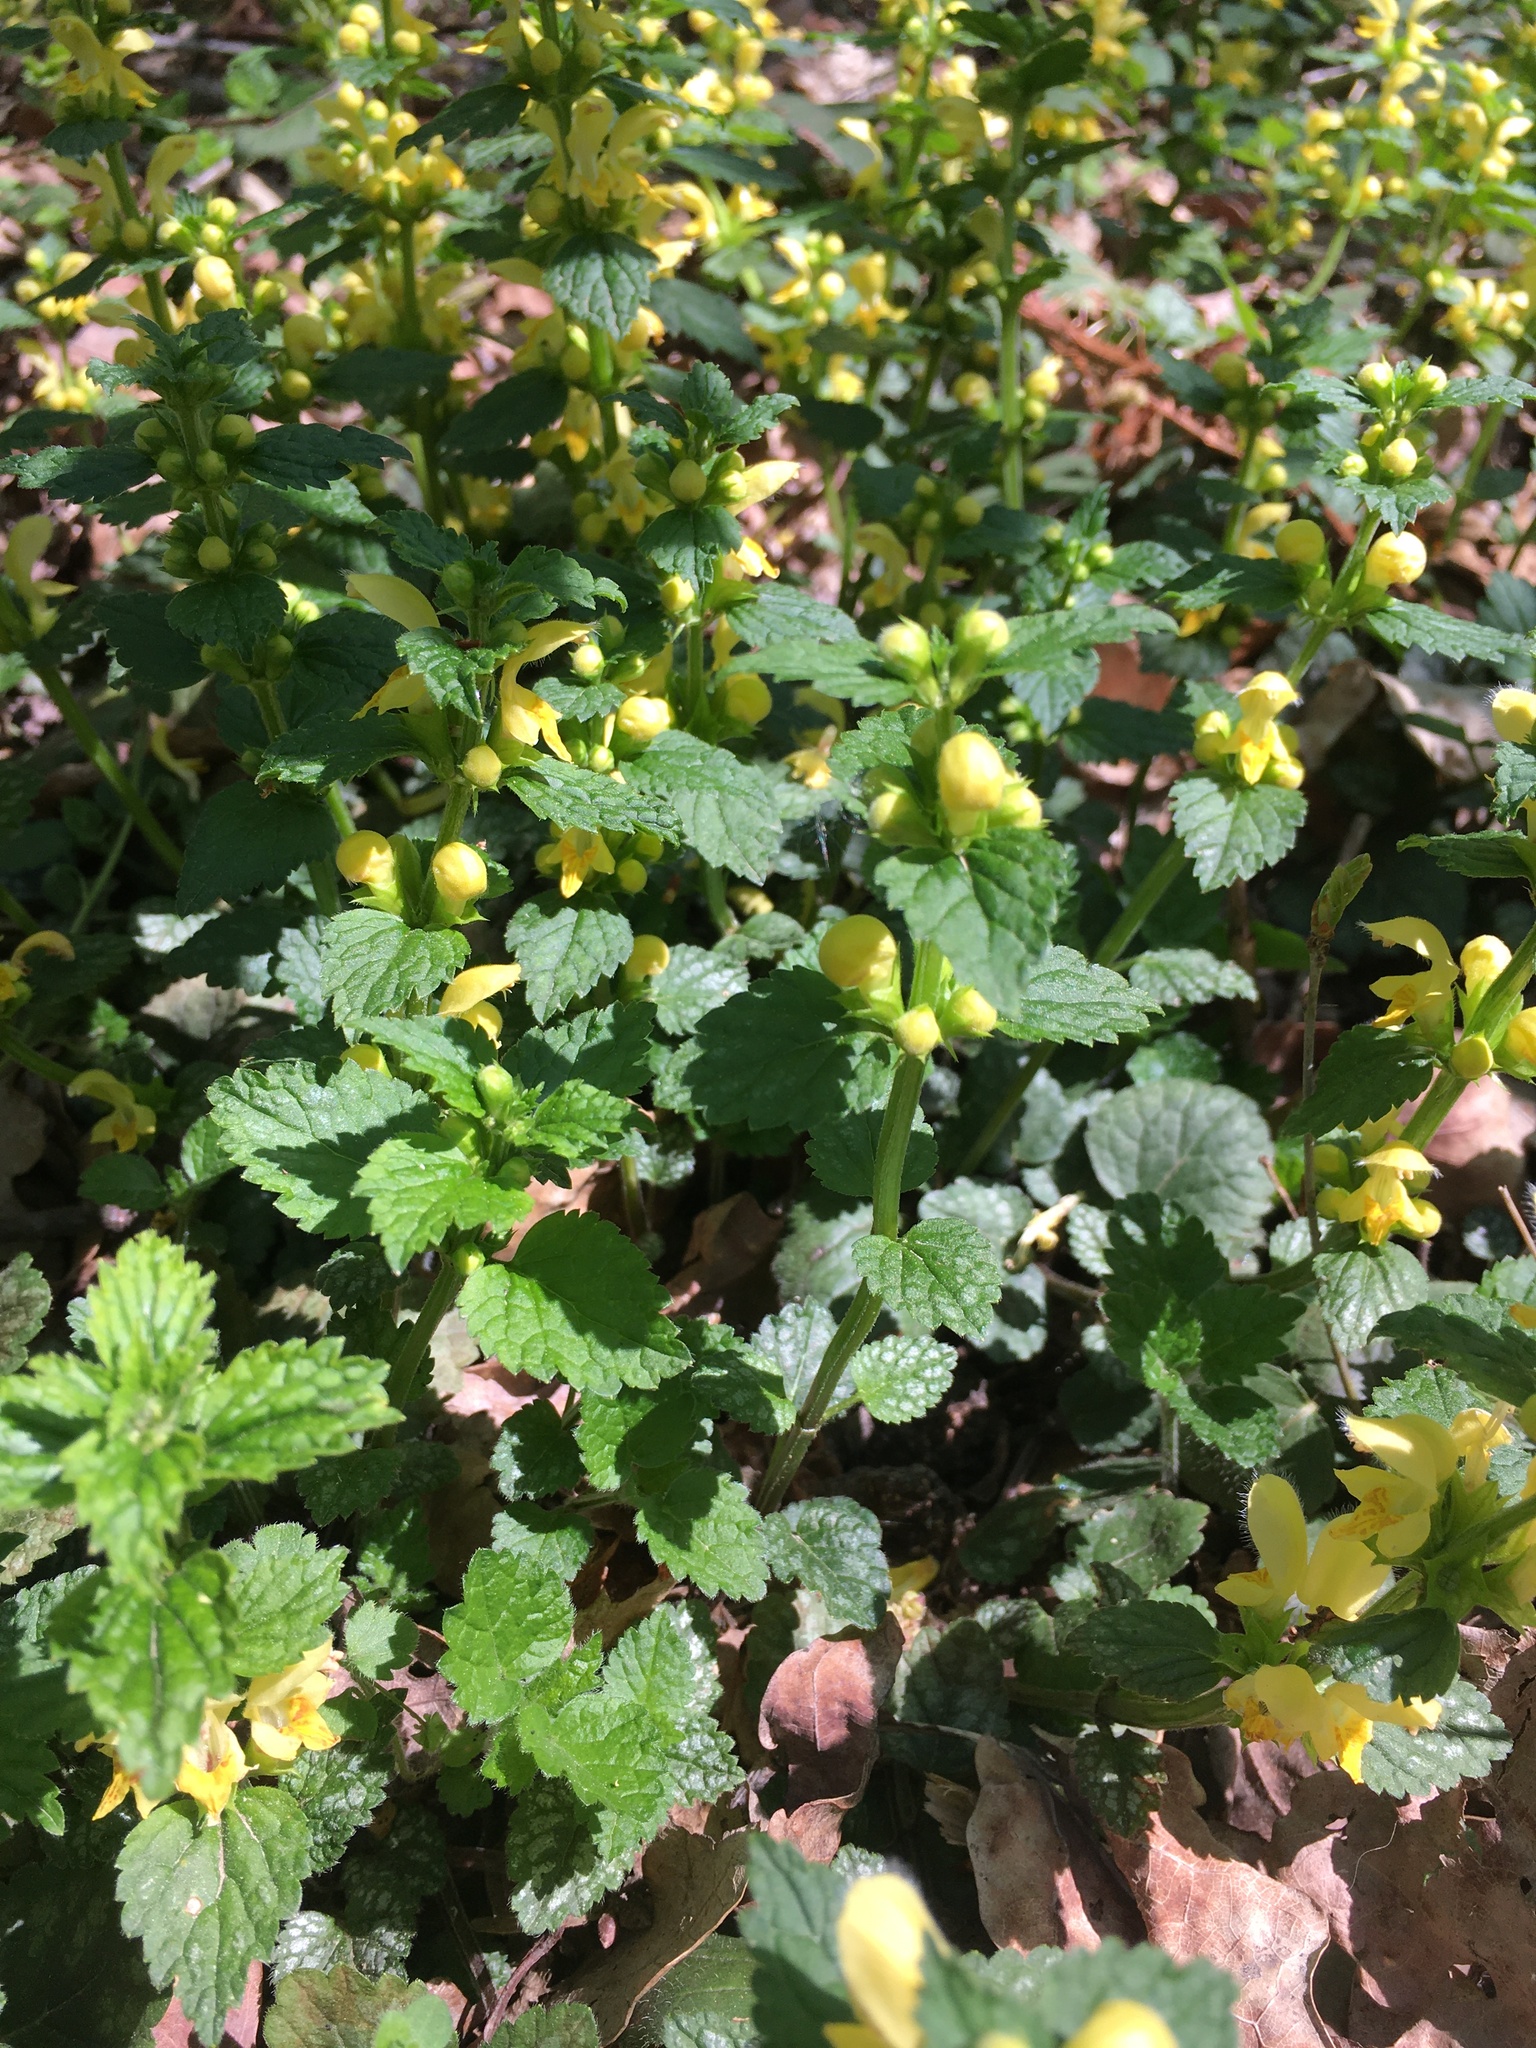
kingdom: Plantae
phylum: Tracheophyta
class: Magnoliopsida
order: Lamiales
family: Lamiaceae
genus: Lamium
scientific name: Lamium galeobdolon
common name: Yellow archangel
